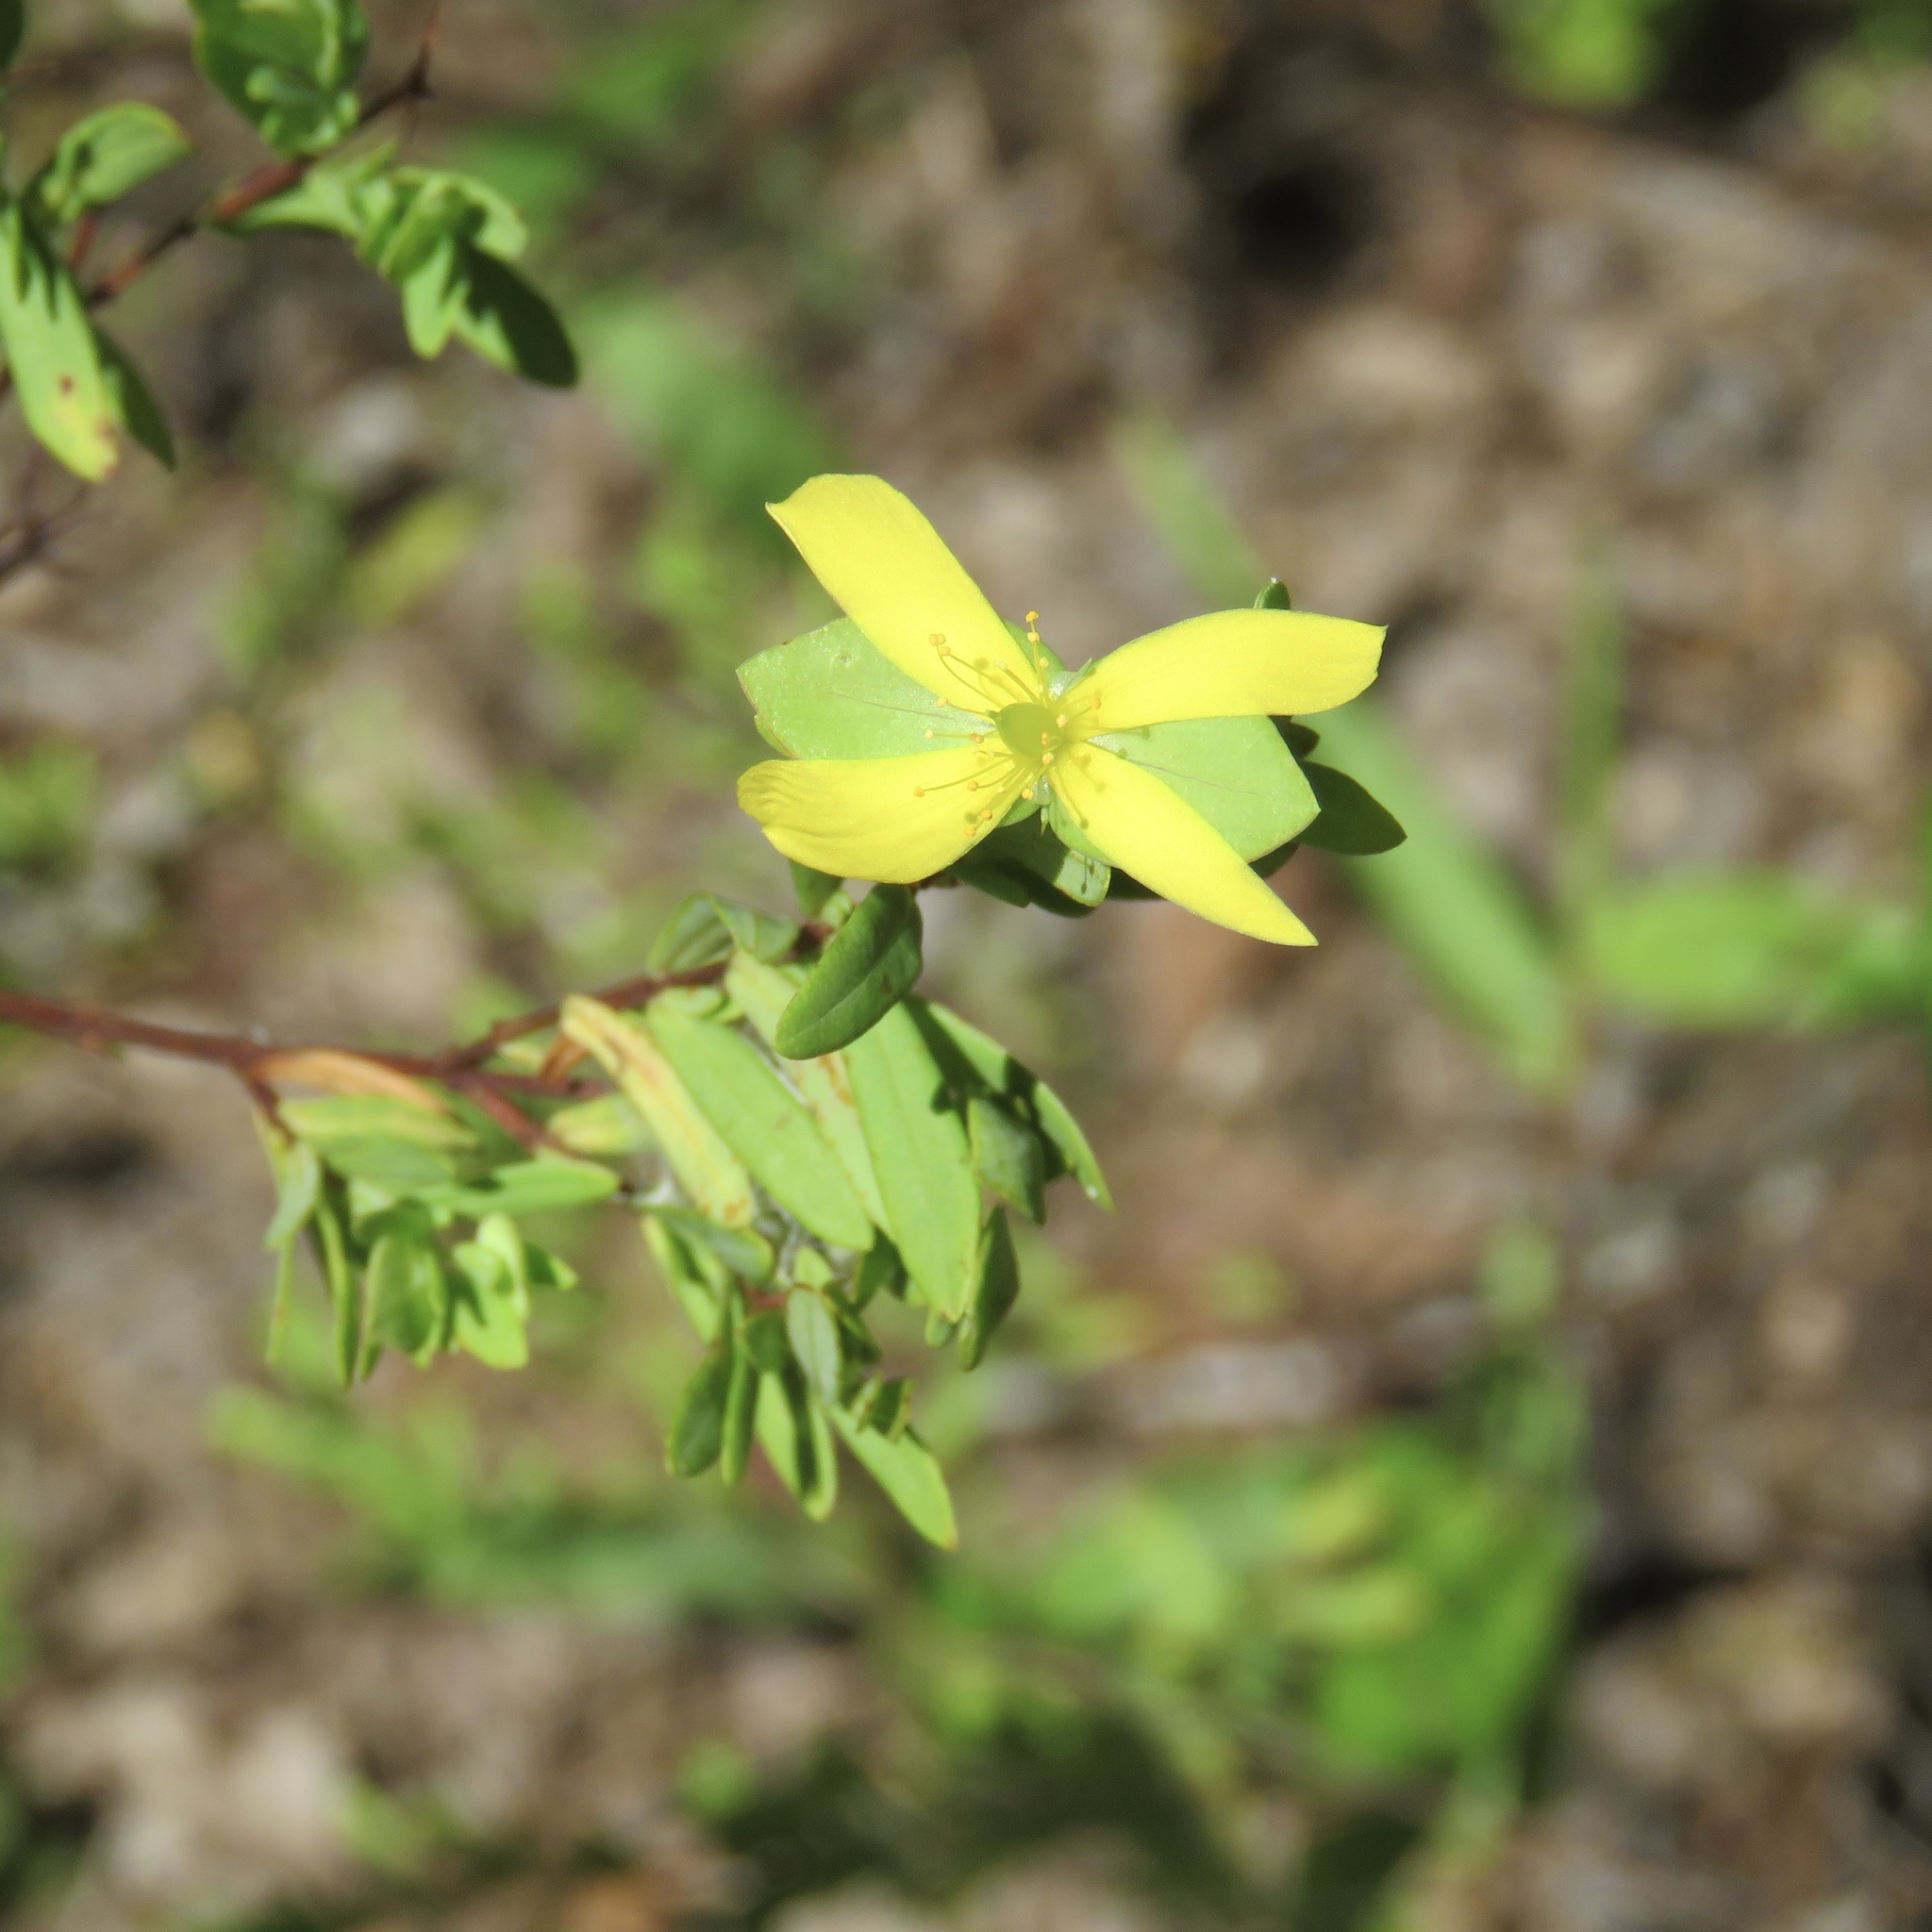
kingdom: Plantae
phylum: Tracheophyta
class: Magnoliopsida
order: Malpighiales
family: Hypericaceae
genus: Hypericum
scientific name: Hypericum hypericoides
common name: St. andrew's cross
